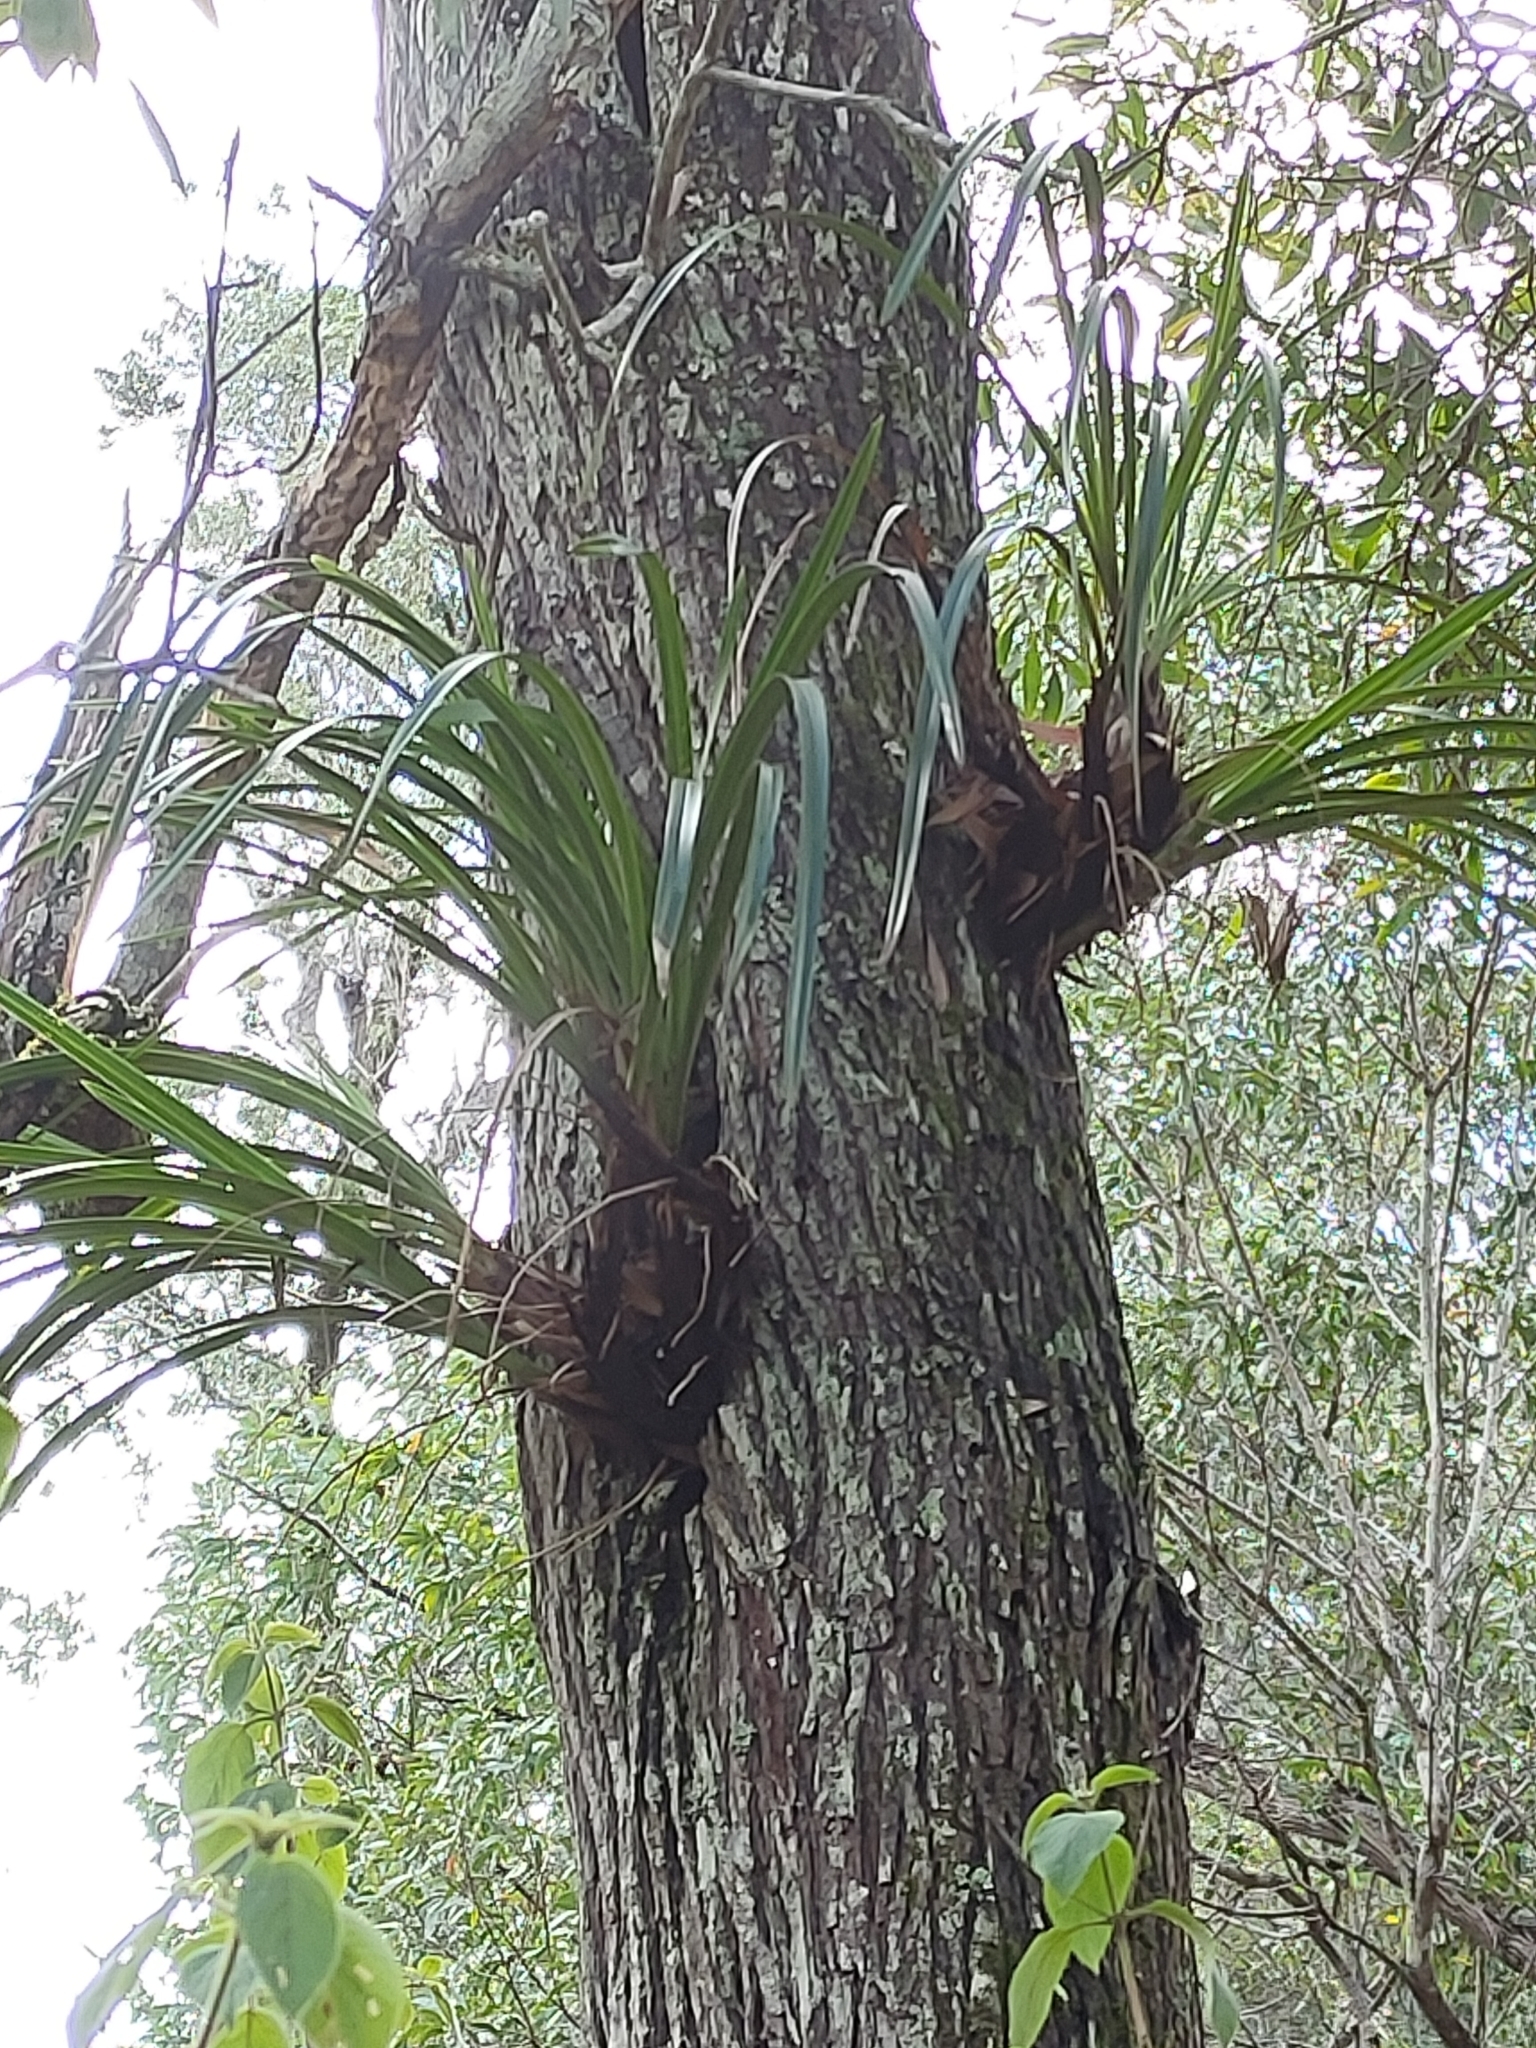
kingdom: Plantae
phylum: Tracheophyta
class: Liliopsida
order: Asparagales
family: Orchidaceae
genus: Cymbidium
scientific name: Cymbidium suave
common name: Snake orchid
